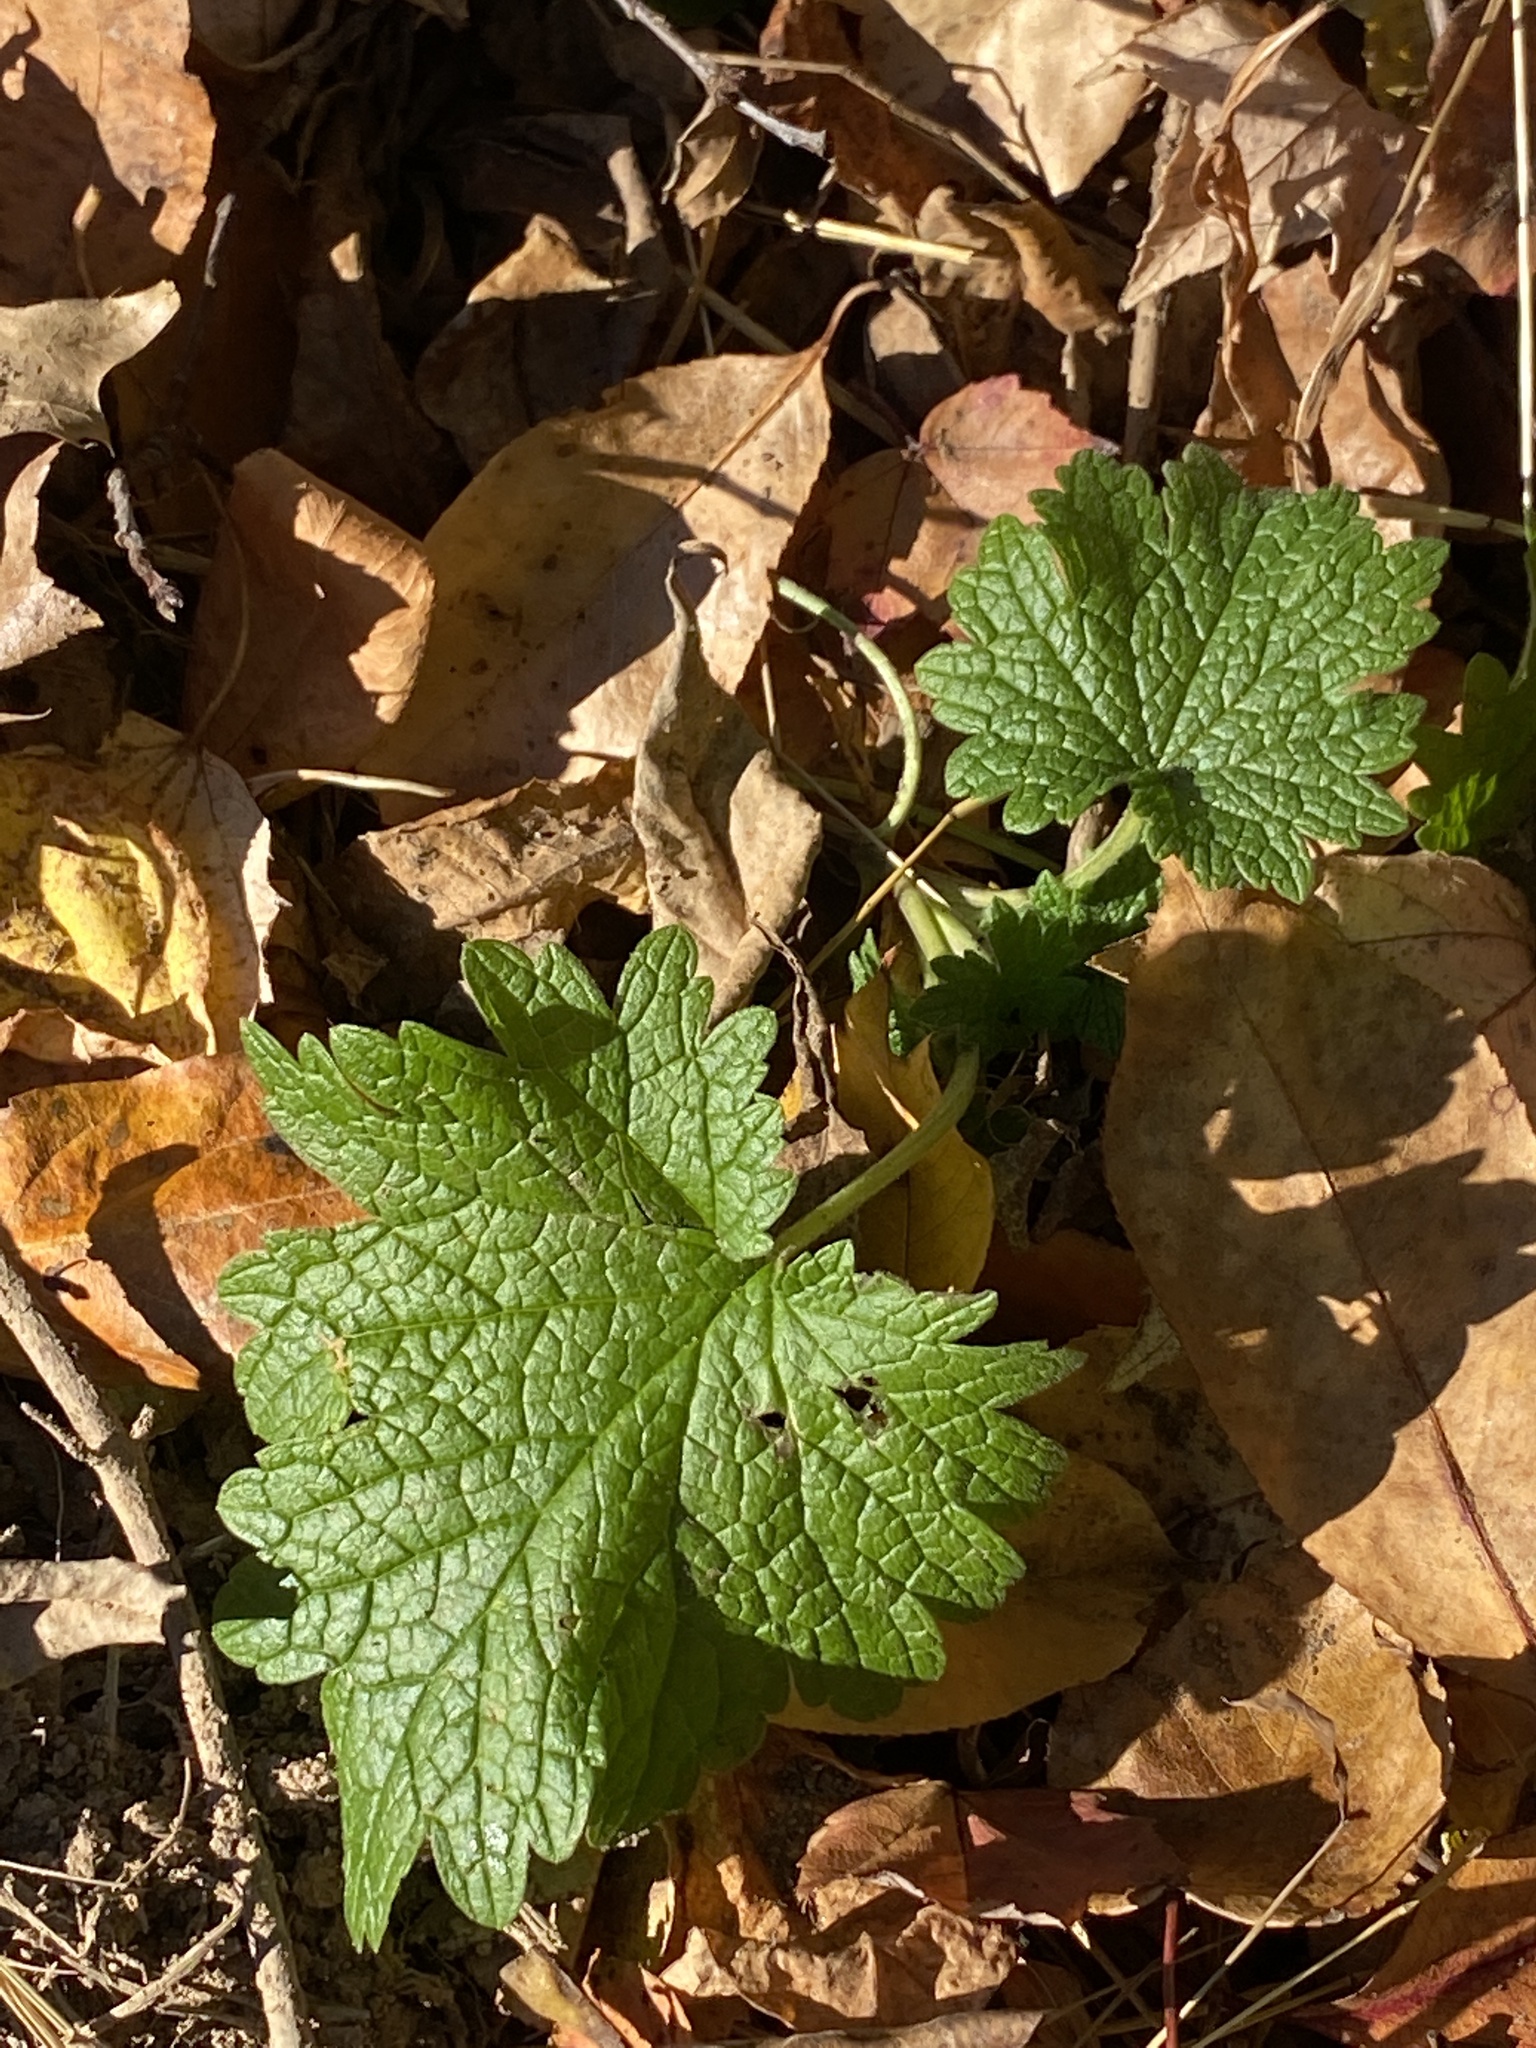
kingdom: Plantae
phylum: Tracheophyta
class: Magnoliopsida
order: Lamiales
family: Lamiaceae
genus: Leonurus
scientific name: Leonurus cardiaca
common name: Motherwort
